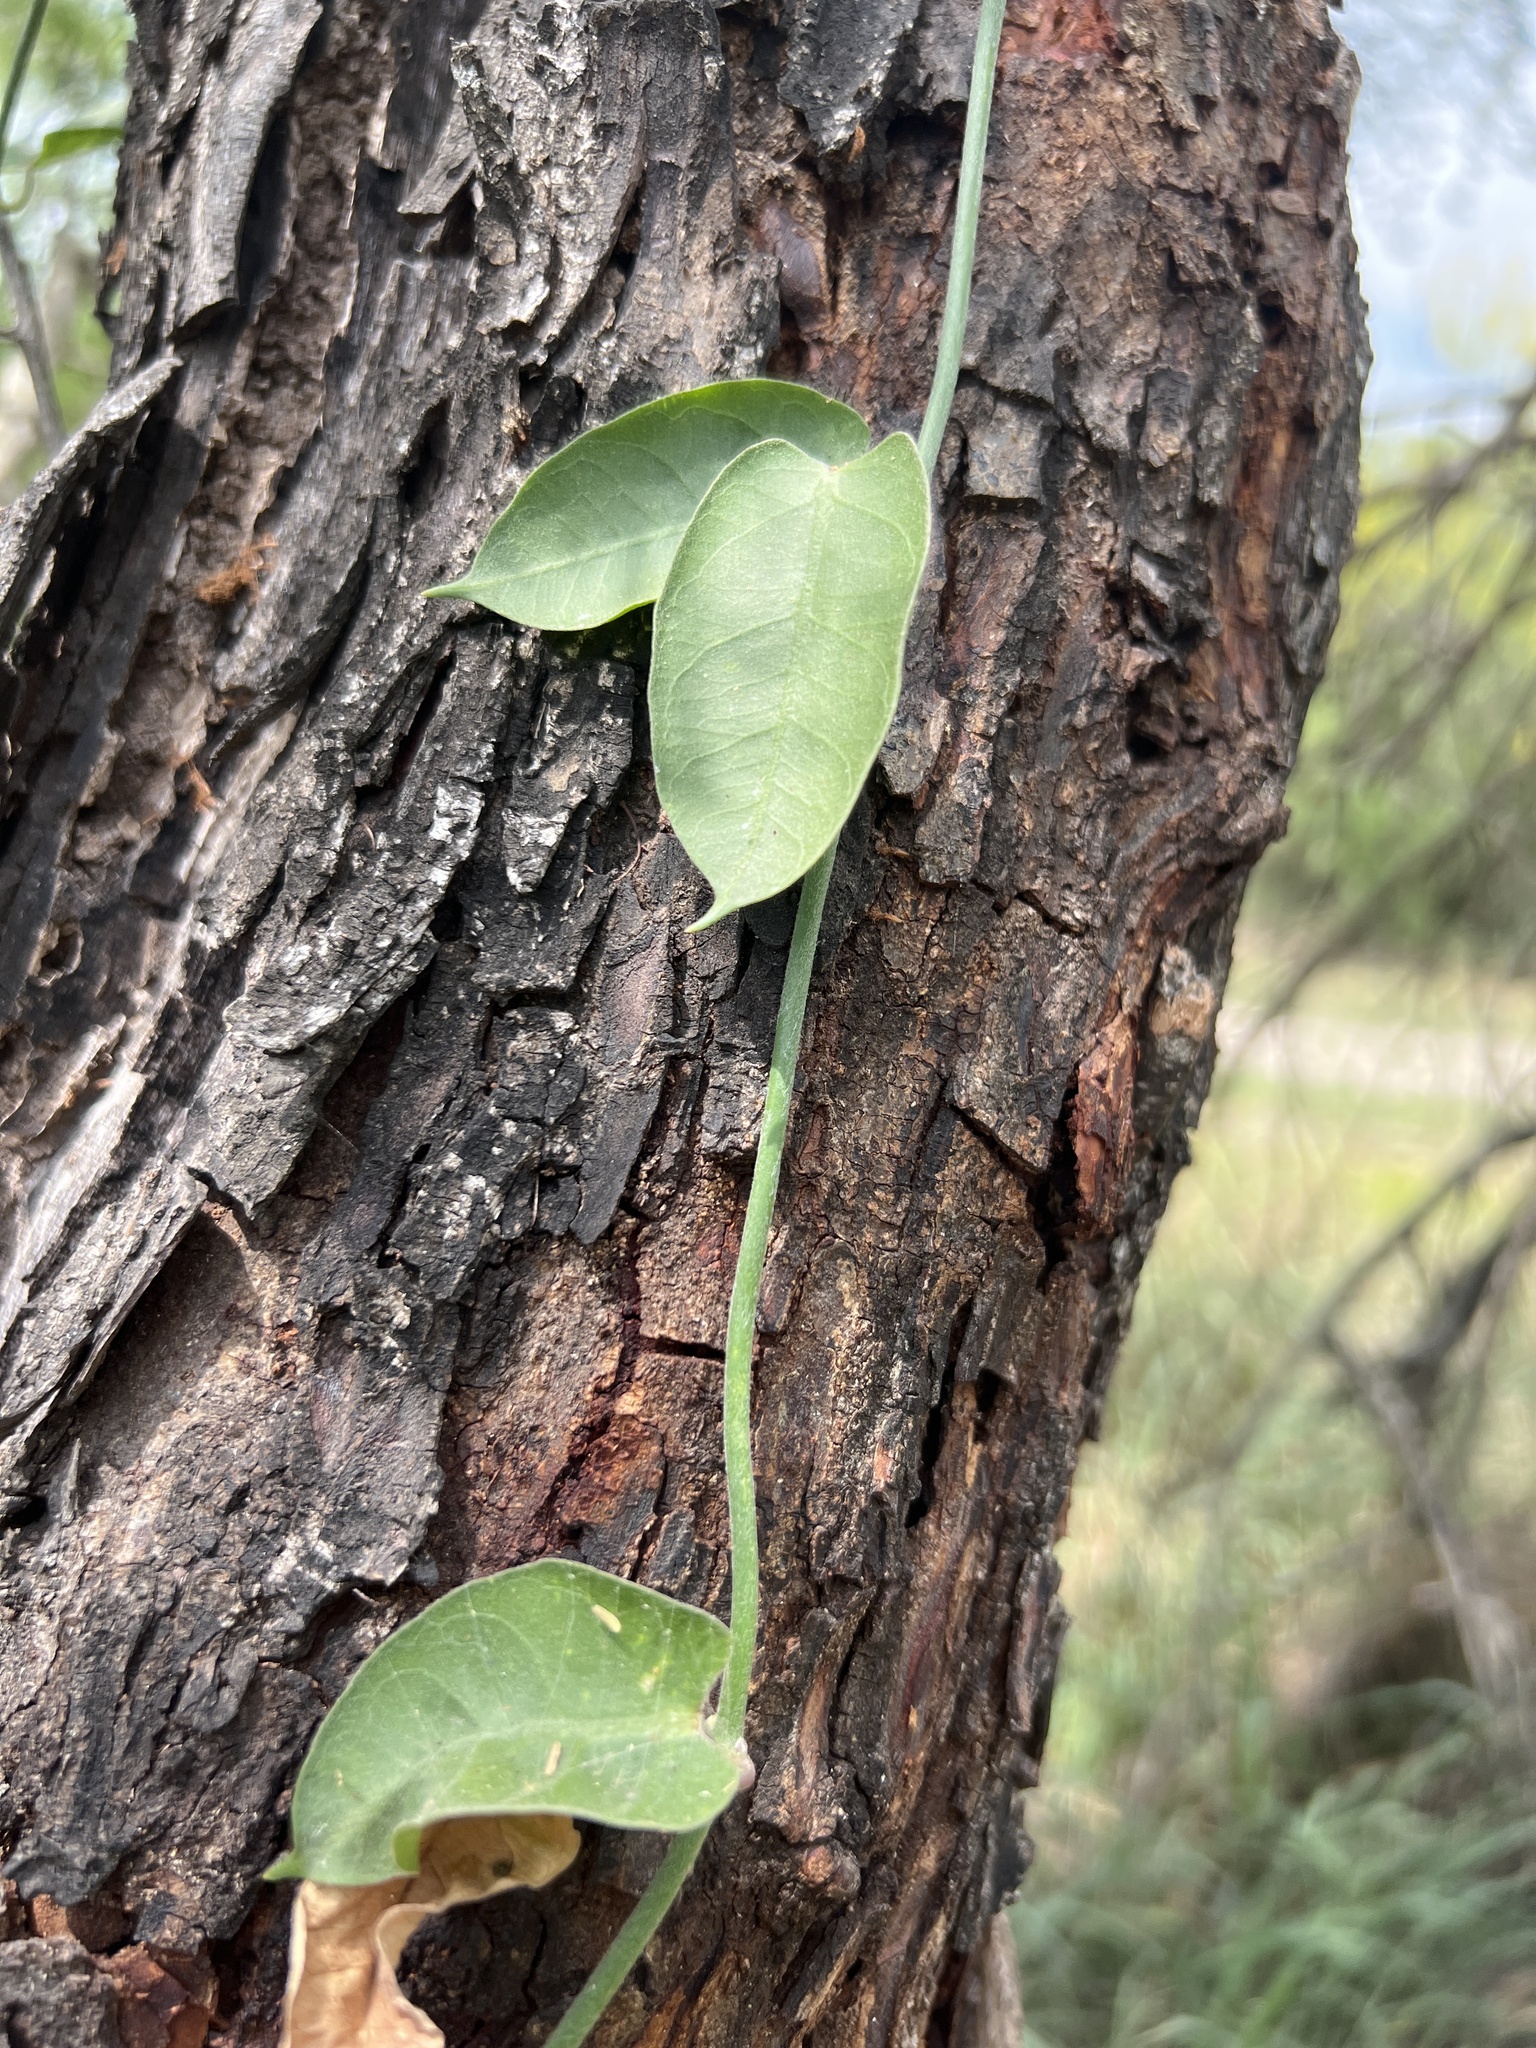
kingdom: Plantae
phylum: Tracheophyta
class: Magnoliopsida
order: Gentianales
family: Apocynaceae
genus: Funastrum
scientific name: Funastrum clausum
